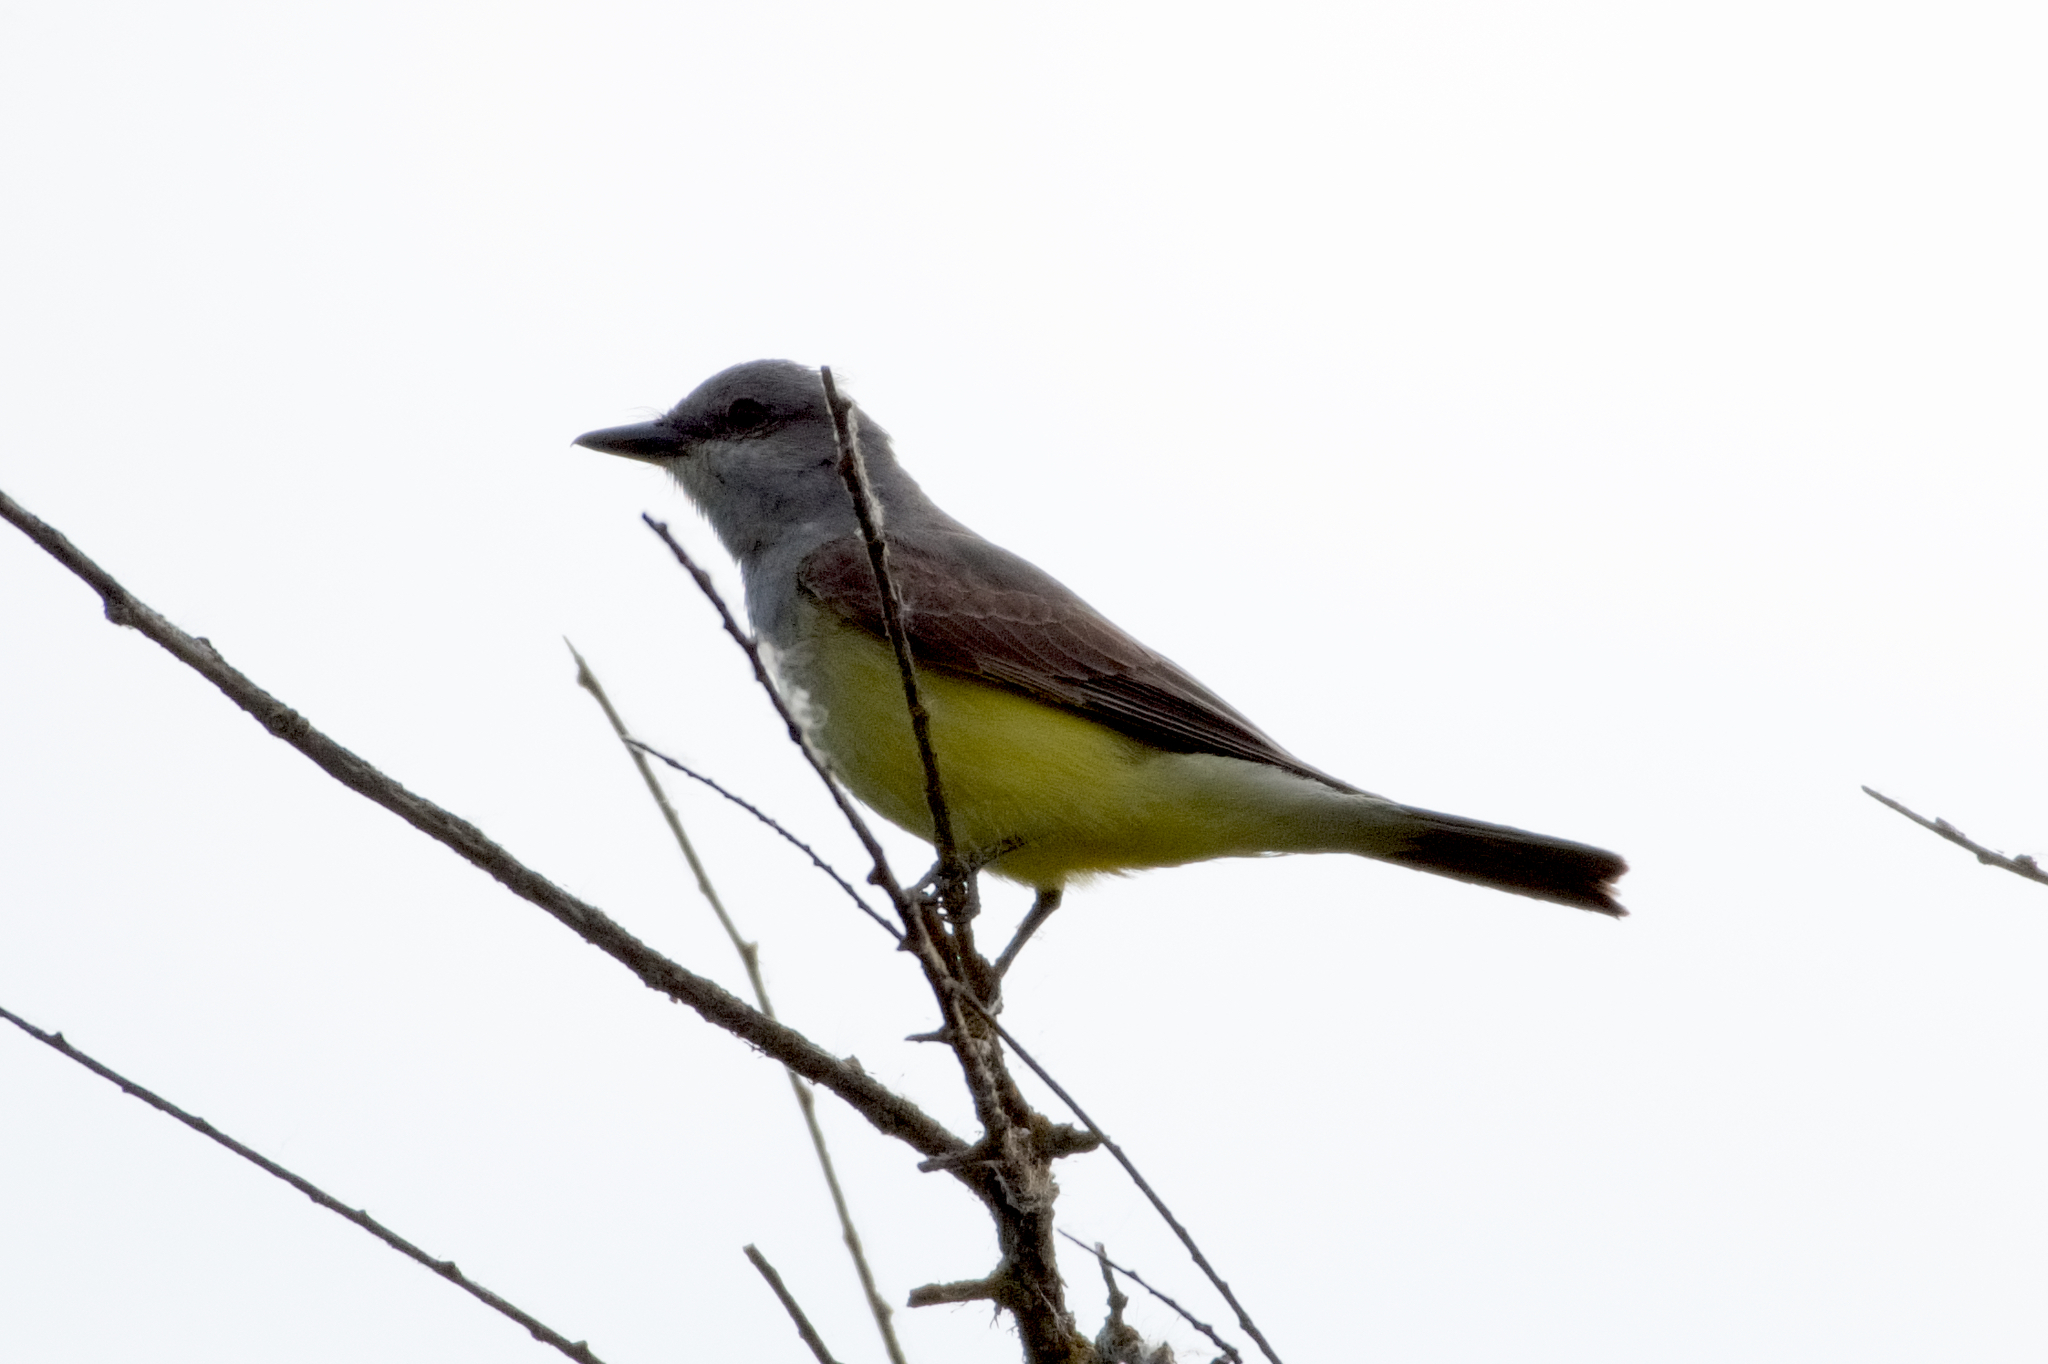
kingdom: Animalia
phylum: Chordata
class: Aves
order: Passeriformes
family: Tyrannidae
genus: Tyrannus
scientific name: Tyrannus verticalis
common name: Western kingbird
